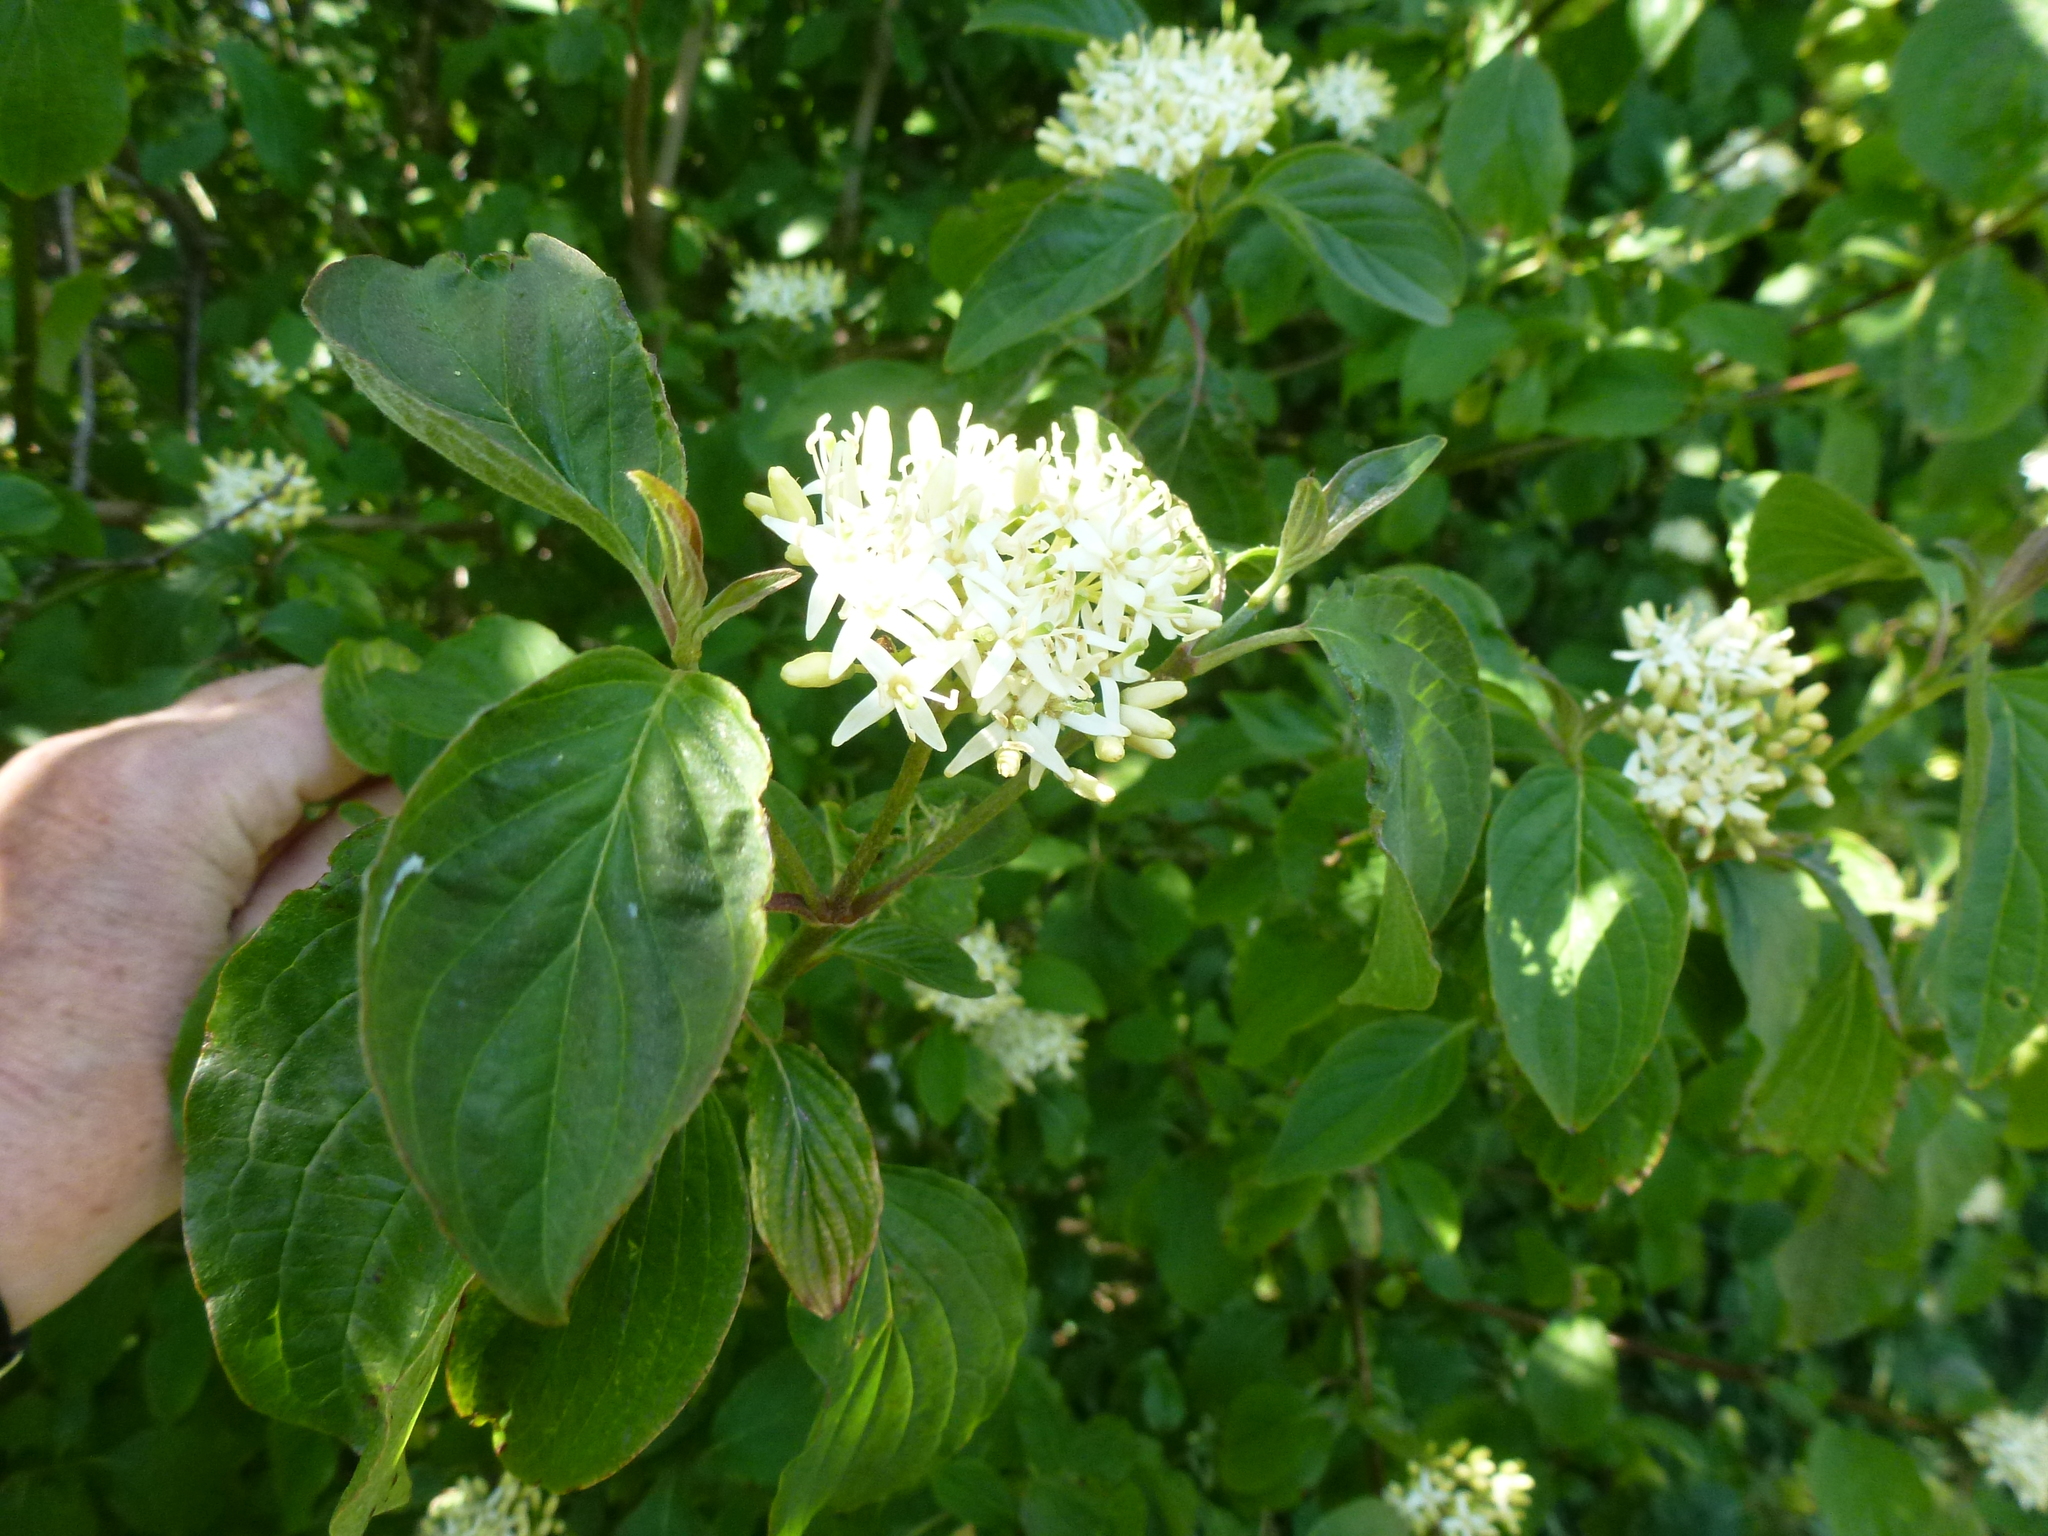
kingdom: Plantae
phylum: Tracheophyta
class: Magnoliopsida
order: Cornales
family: Cornaceae
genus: Cornus
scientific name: Cornus sanguinea
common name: Dogwood
